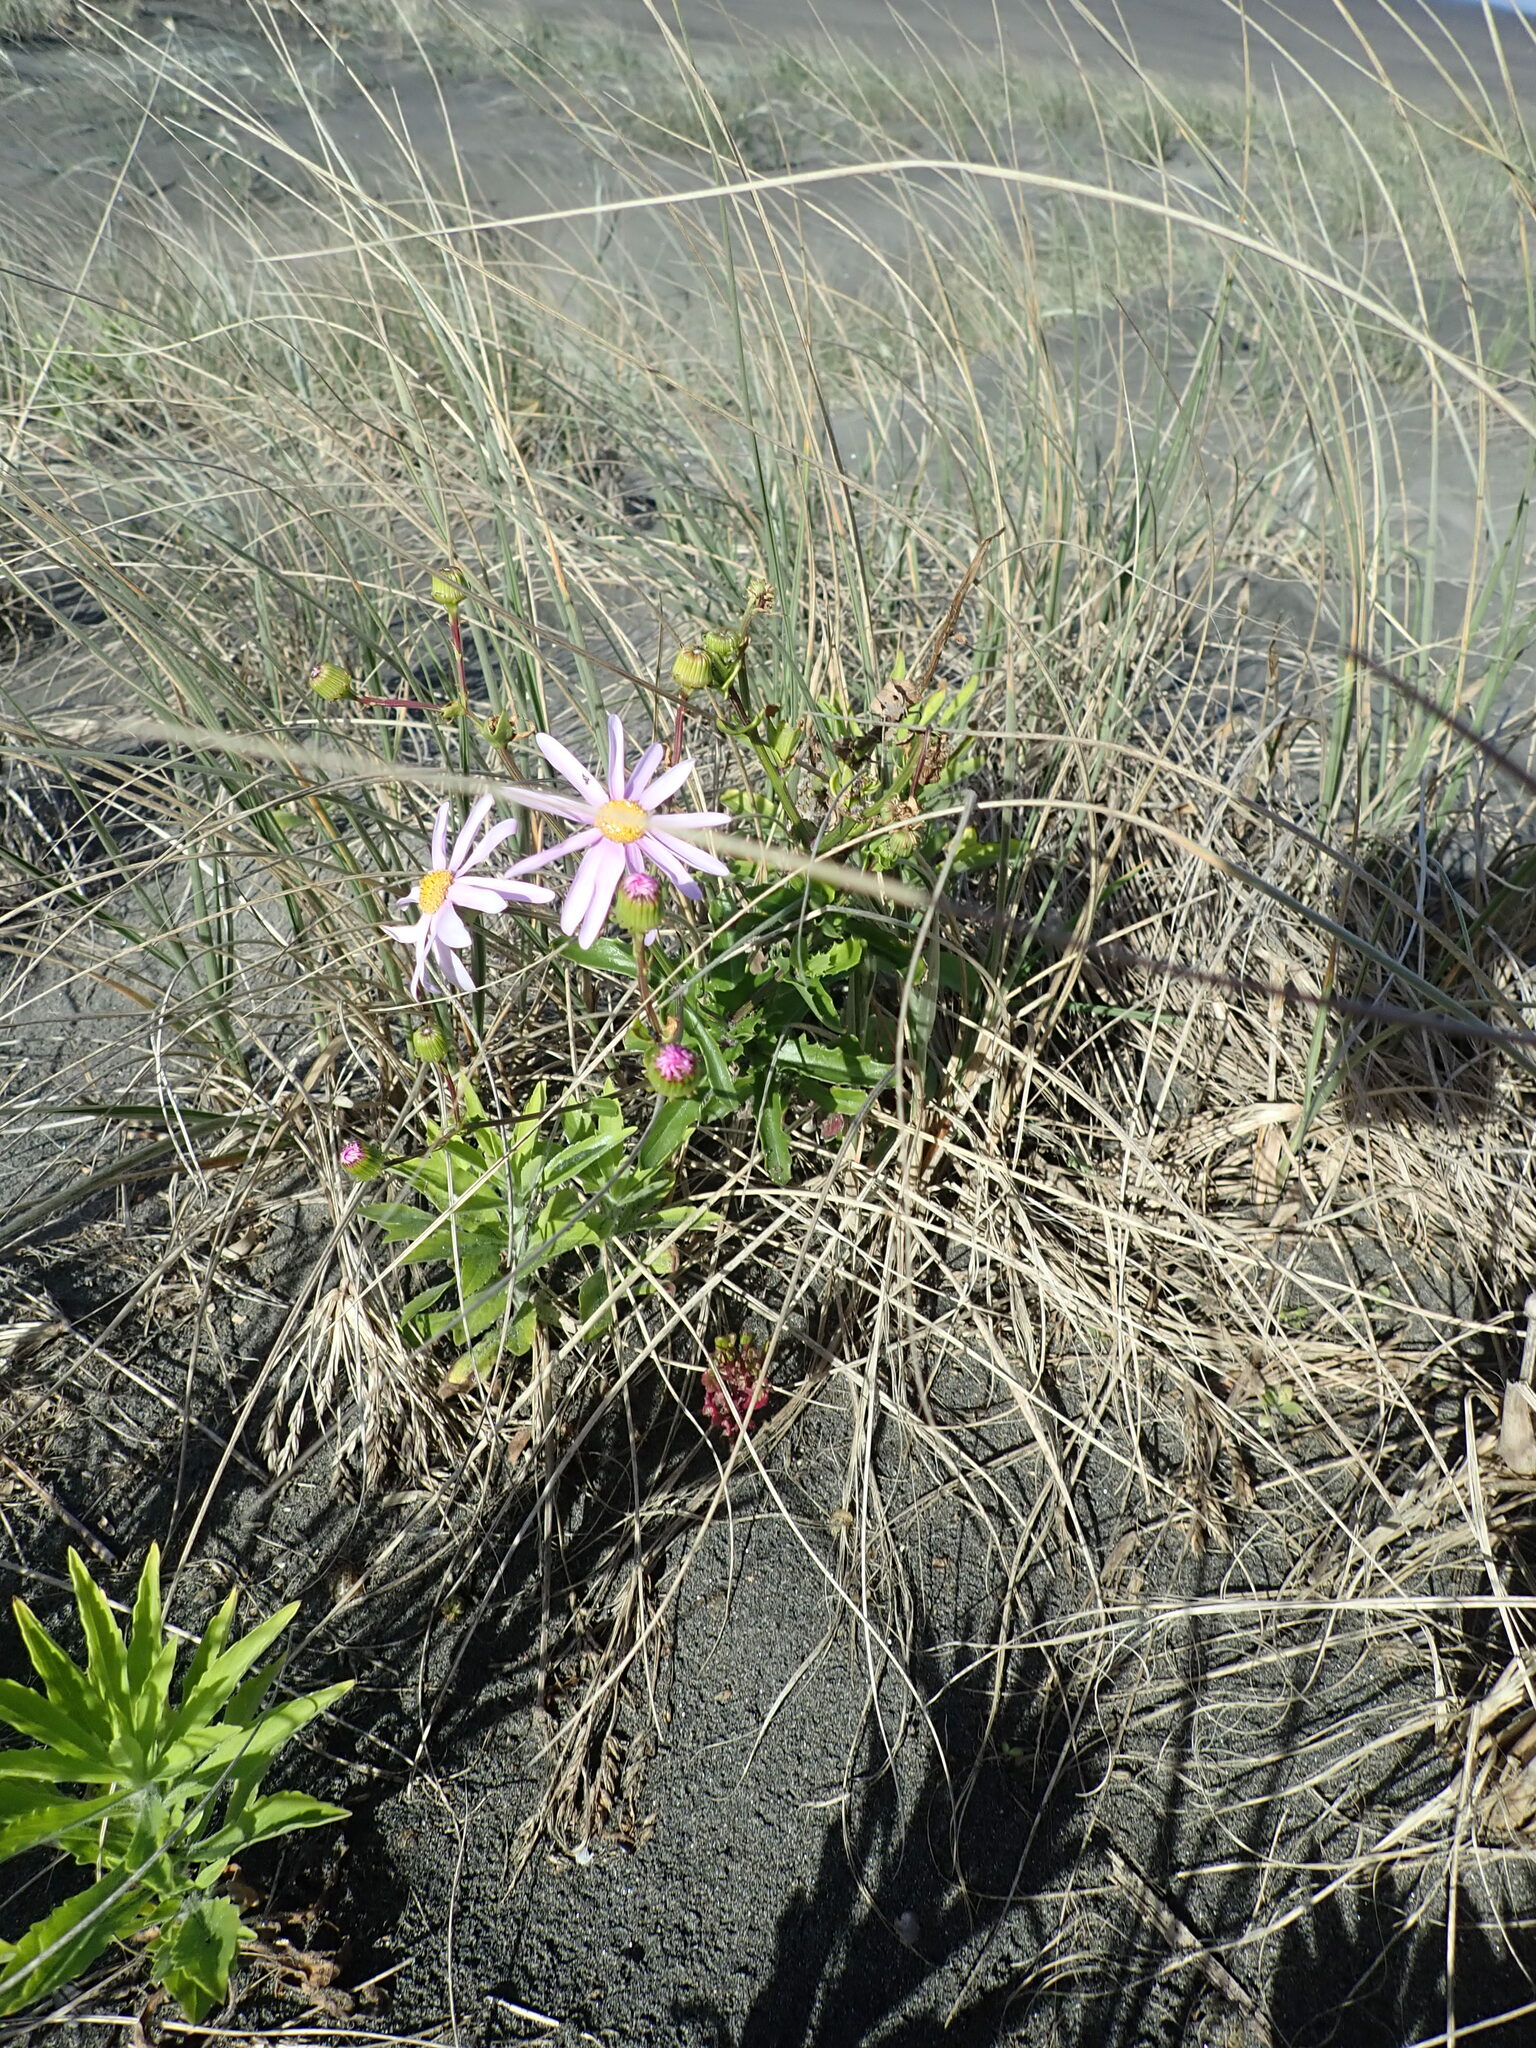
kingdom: Plantae
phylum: Tracheophyta
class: Magnoliopsida
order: Asterales
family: Asteraceae
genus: Senecio
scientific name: Senecio glastifolius
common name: Woad-leaved ragwort
